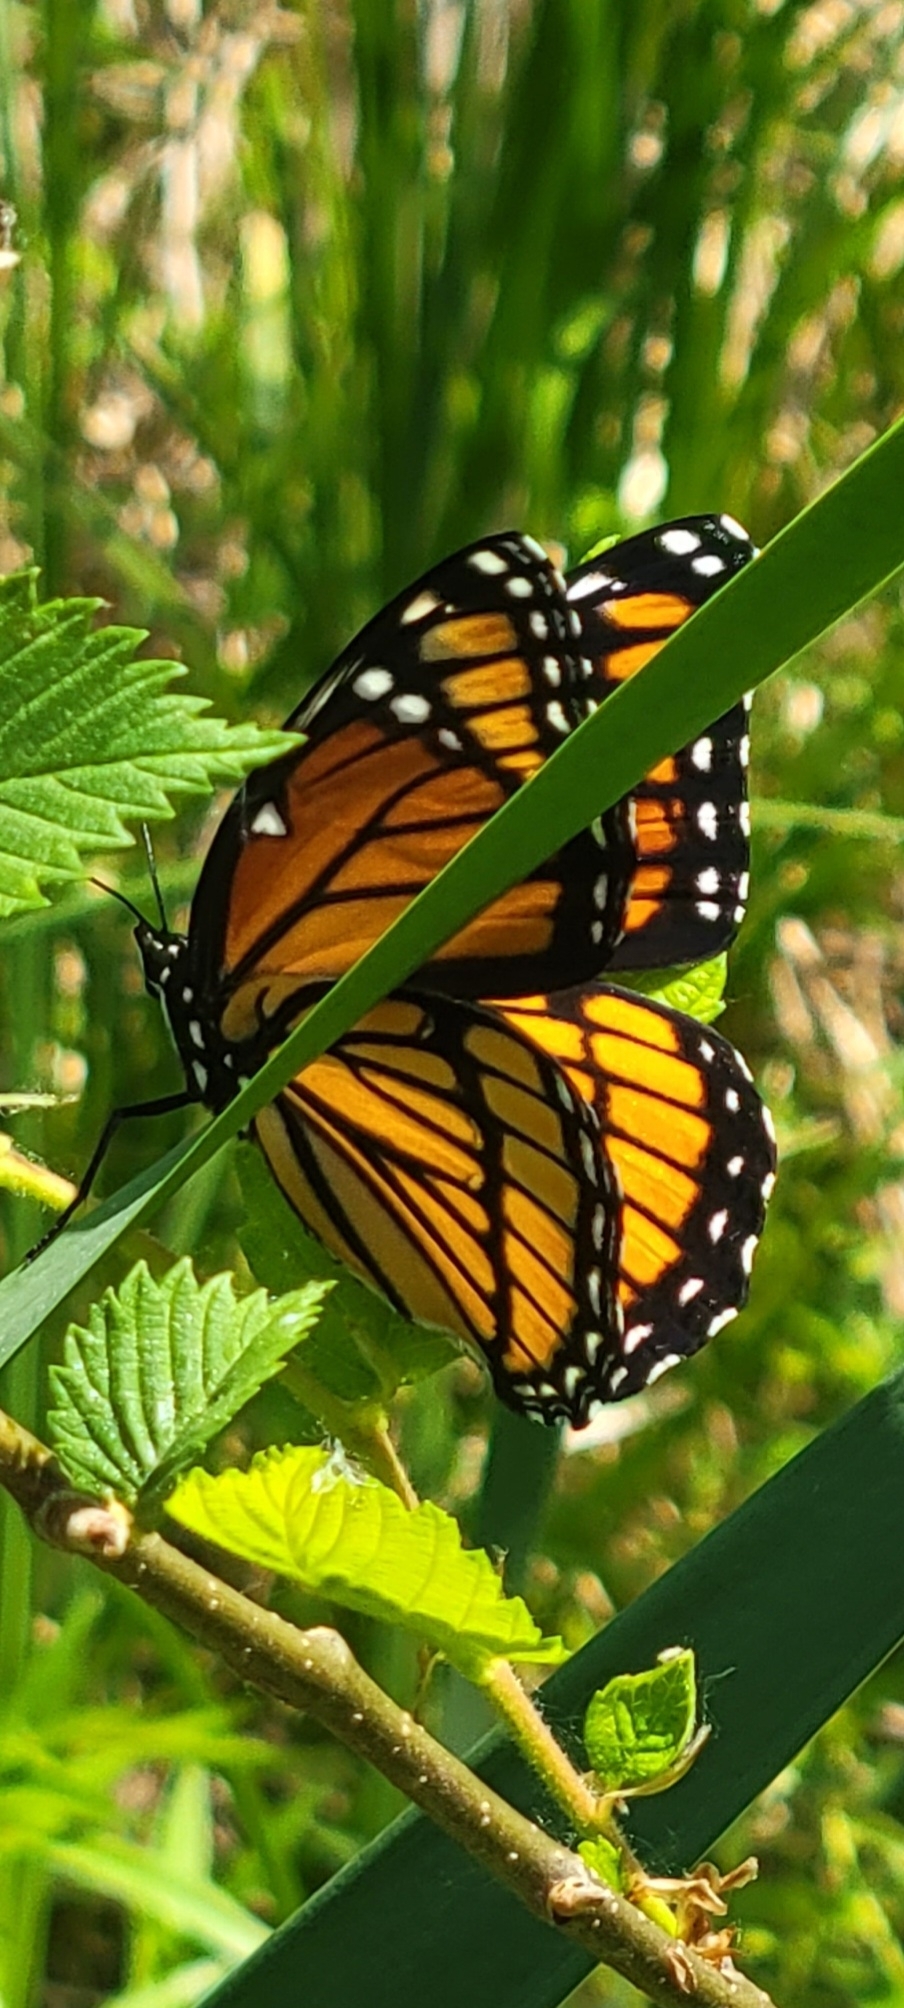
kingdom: Animalia
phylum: Arthropoda
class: Insecta
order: Lepidoptera
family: Nymphalidae
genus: Limenitis
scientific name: Limenitis archippus
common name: Viceroy
